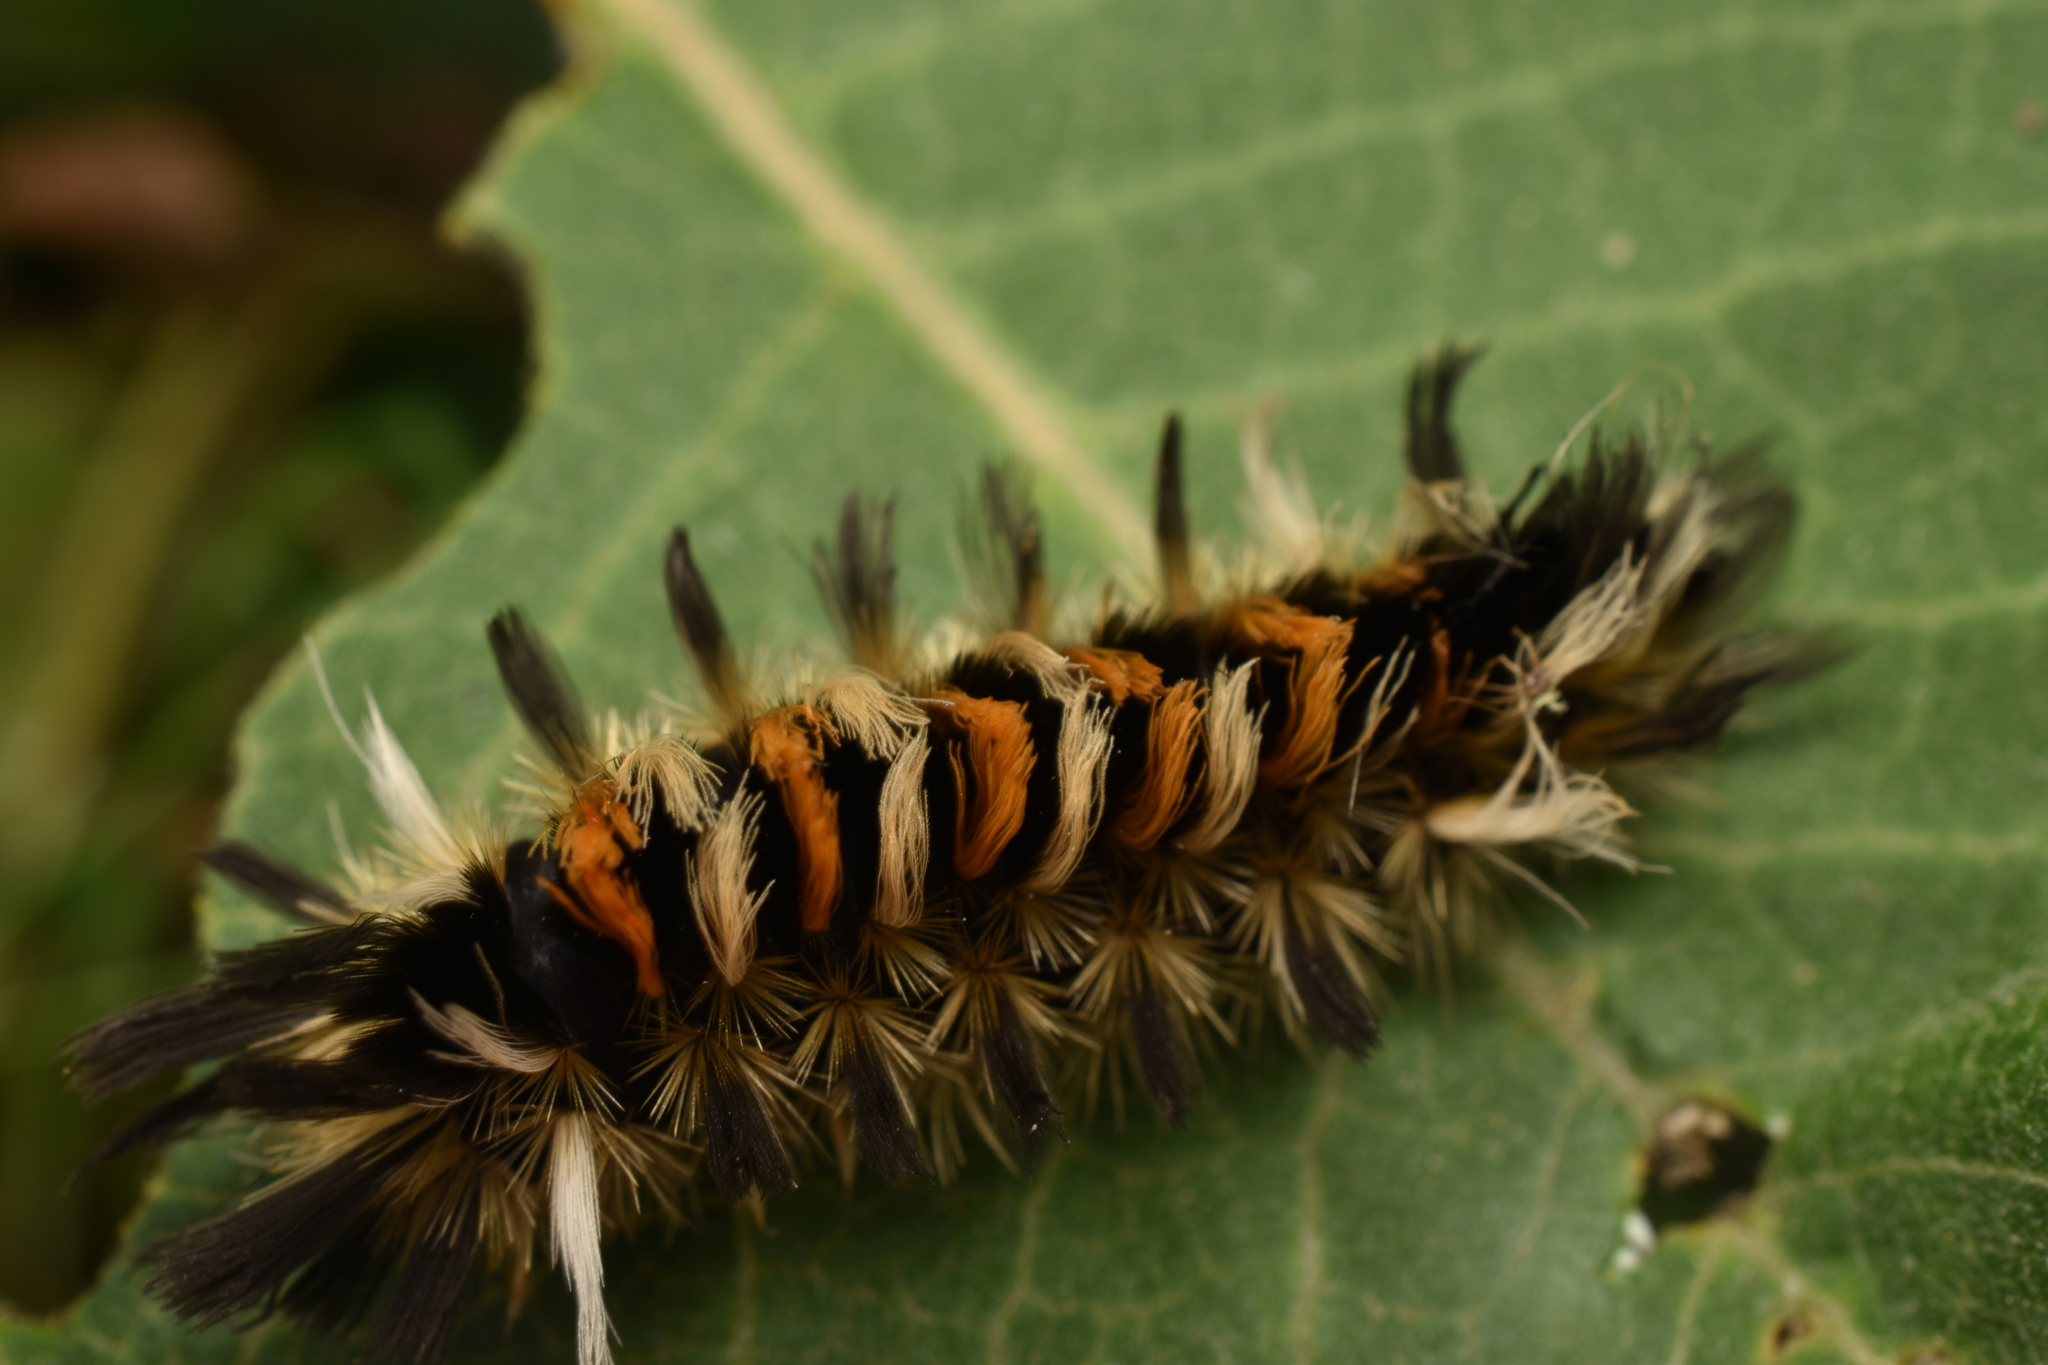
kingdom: Animalia
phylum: Arthropoda
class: Insecta
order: Lepidoptera
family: Erebidae
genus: Euchaetes
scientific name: Euchaetes egle
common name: Milkweed tussock moth
